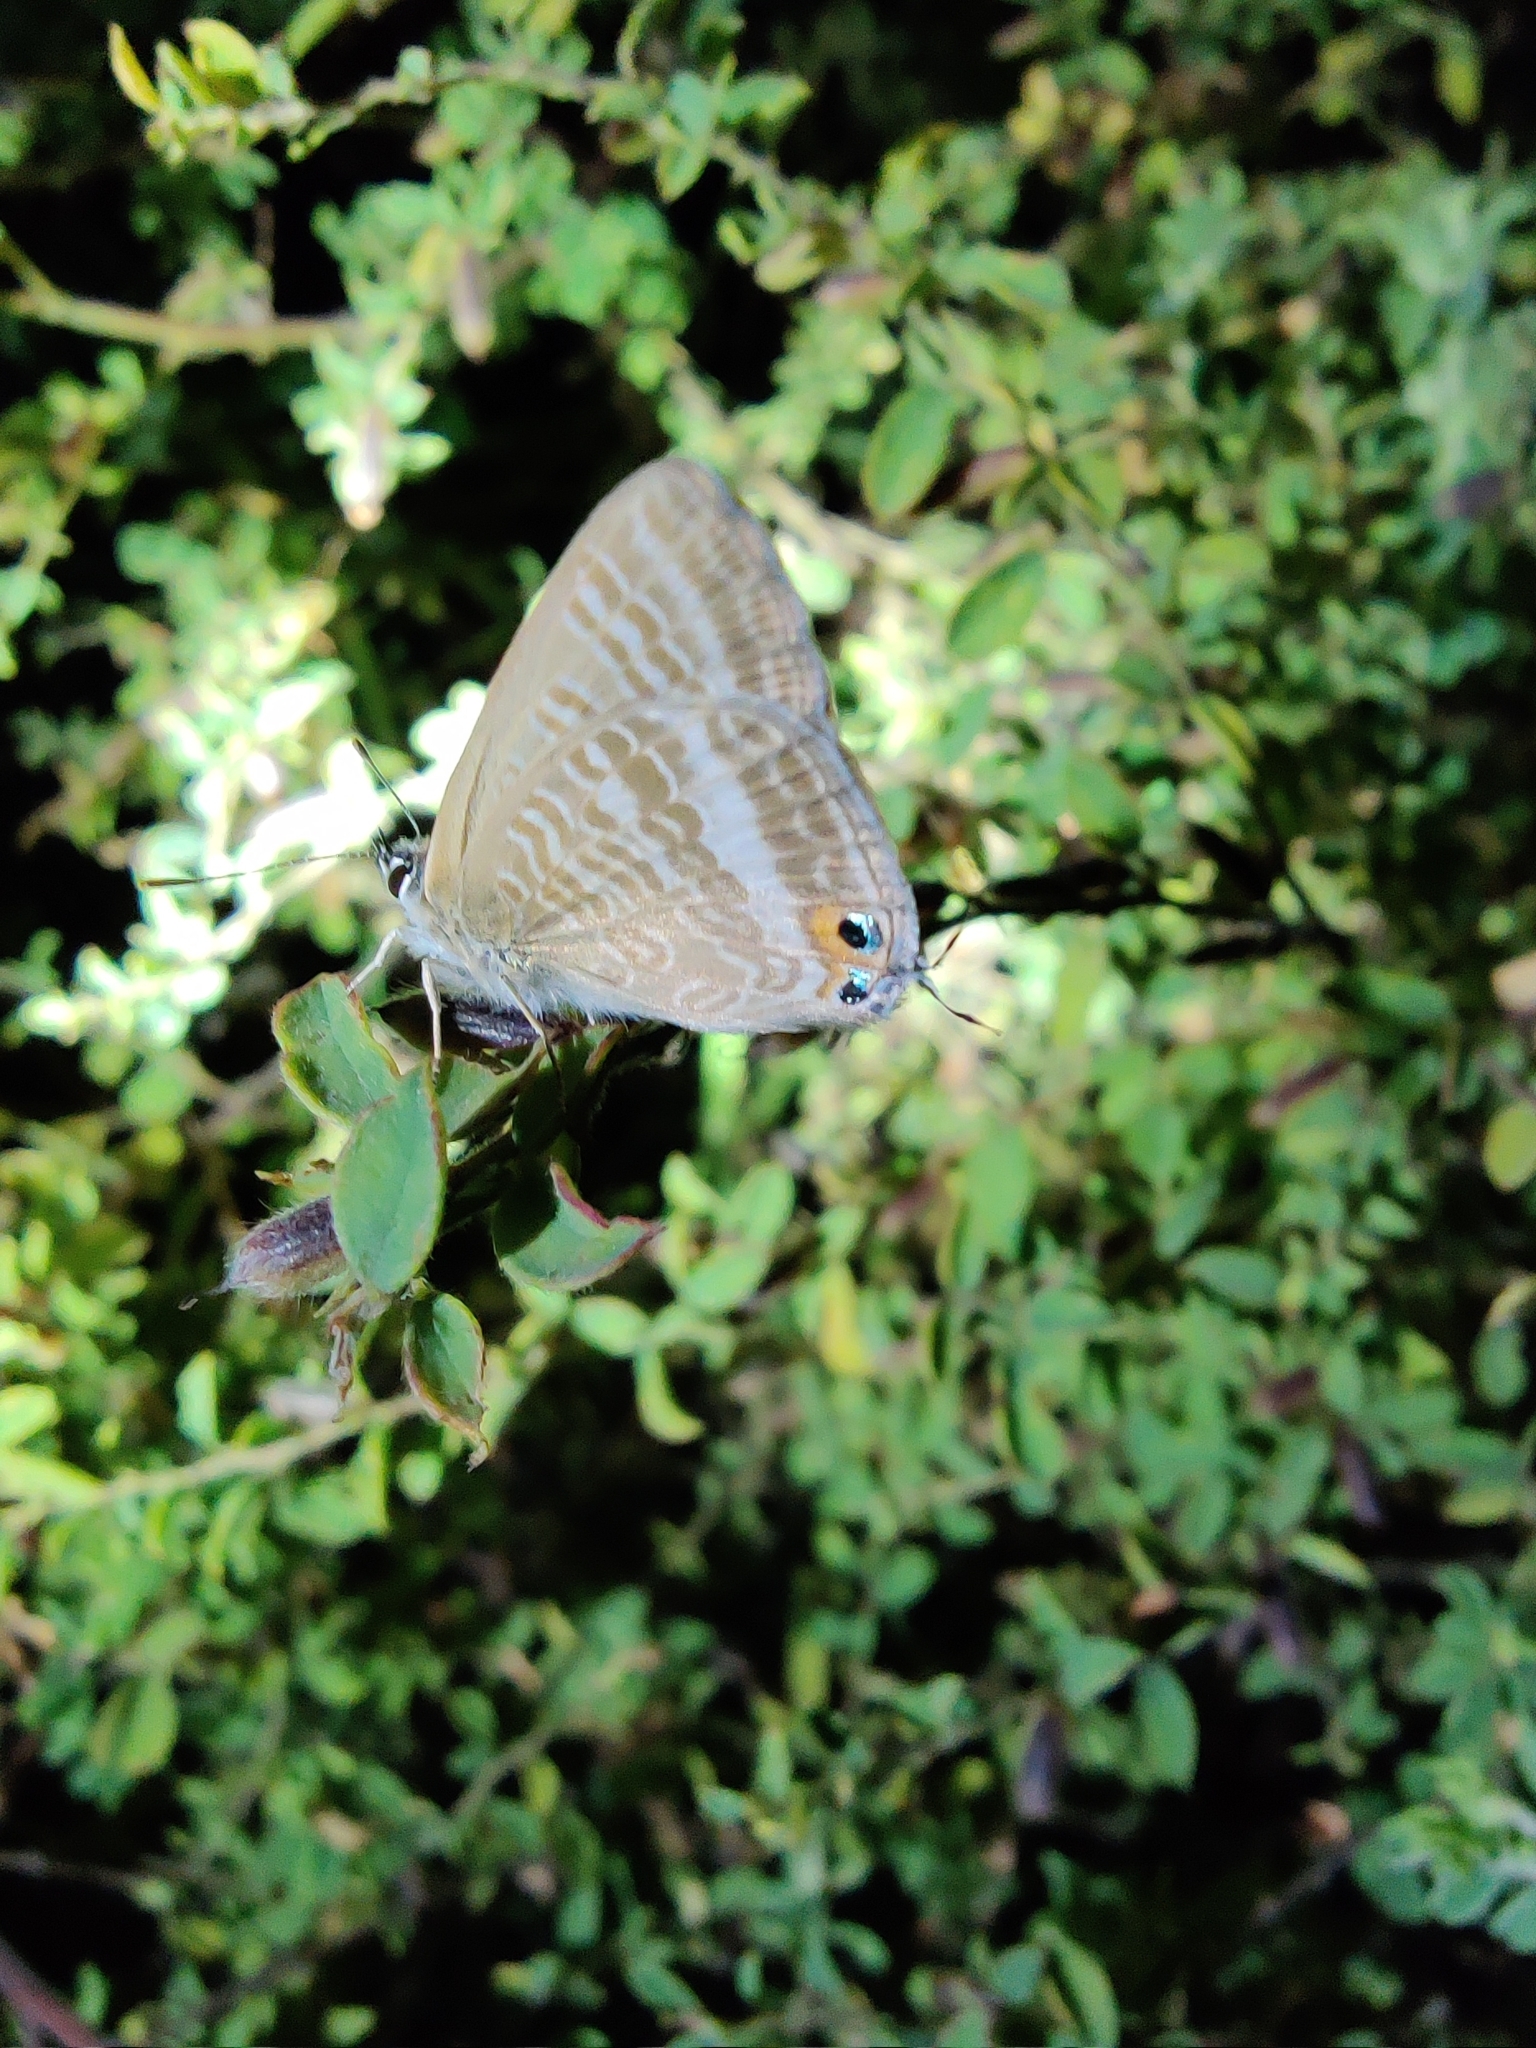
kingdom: Animalia
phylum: Arthropoda
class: Insecta
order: Lepidoptera
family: Lycaenidae
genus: Lampides
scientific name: Lampides boeticus
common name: Long-tailed blue
